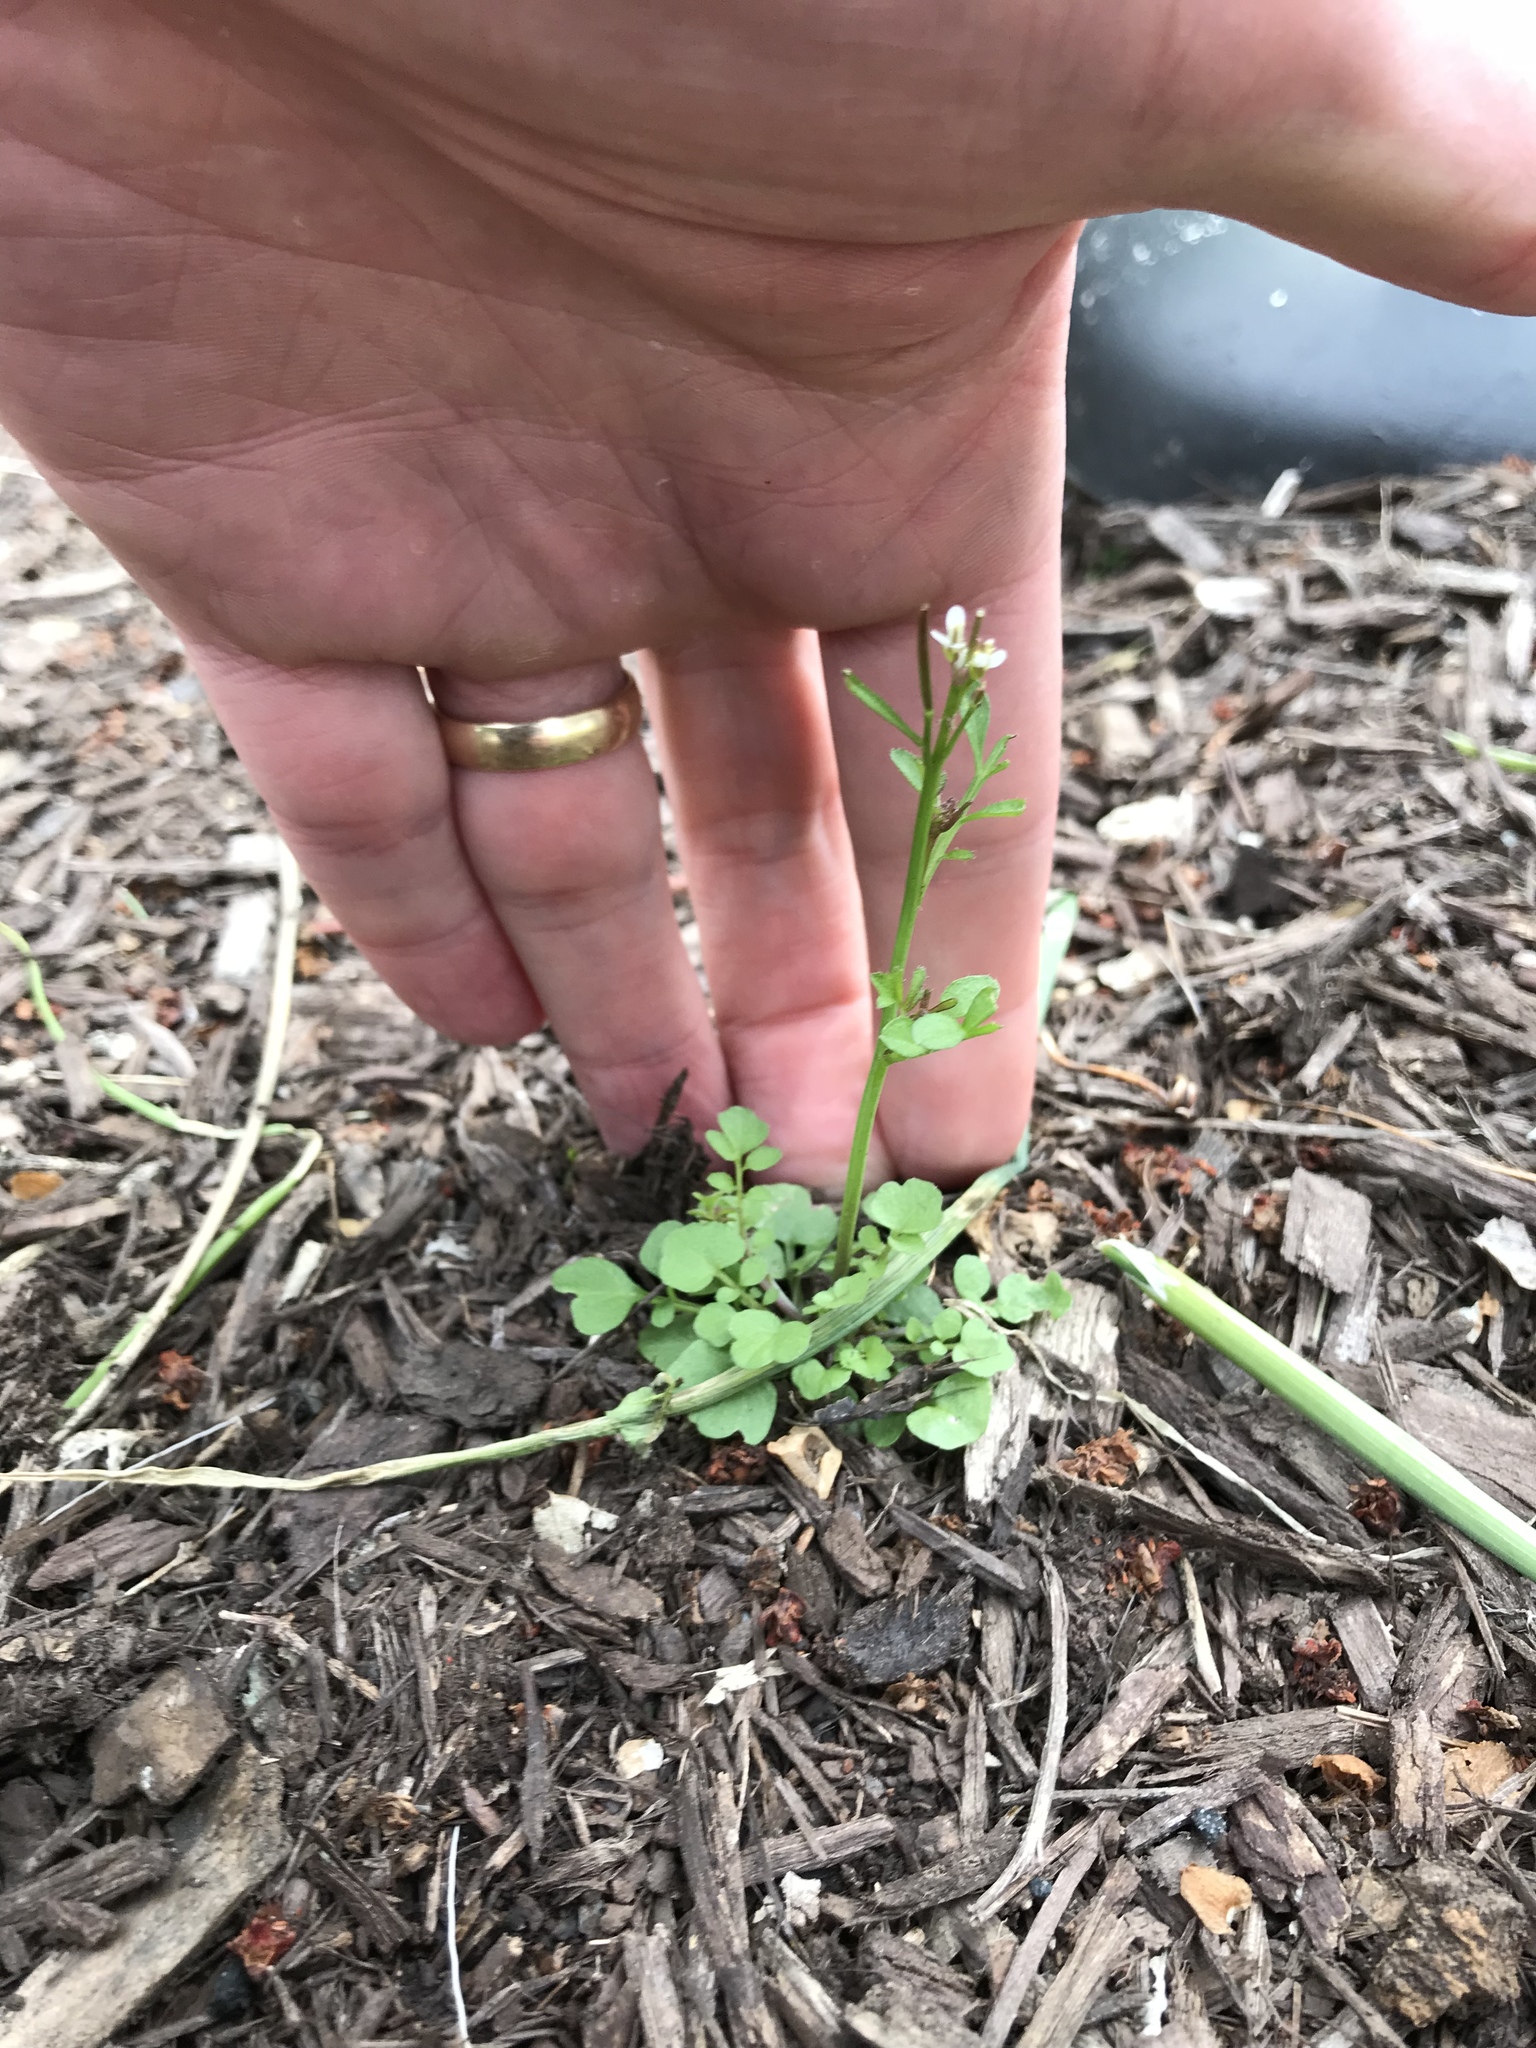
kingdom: Plantae
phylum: Tracheophyta
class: Magnoliopsida
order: Brassicales
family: Brassicaceae
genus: Cardamine
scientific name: Cardamine hirsuta
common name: Hairy bittercress
